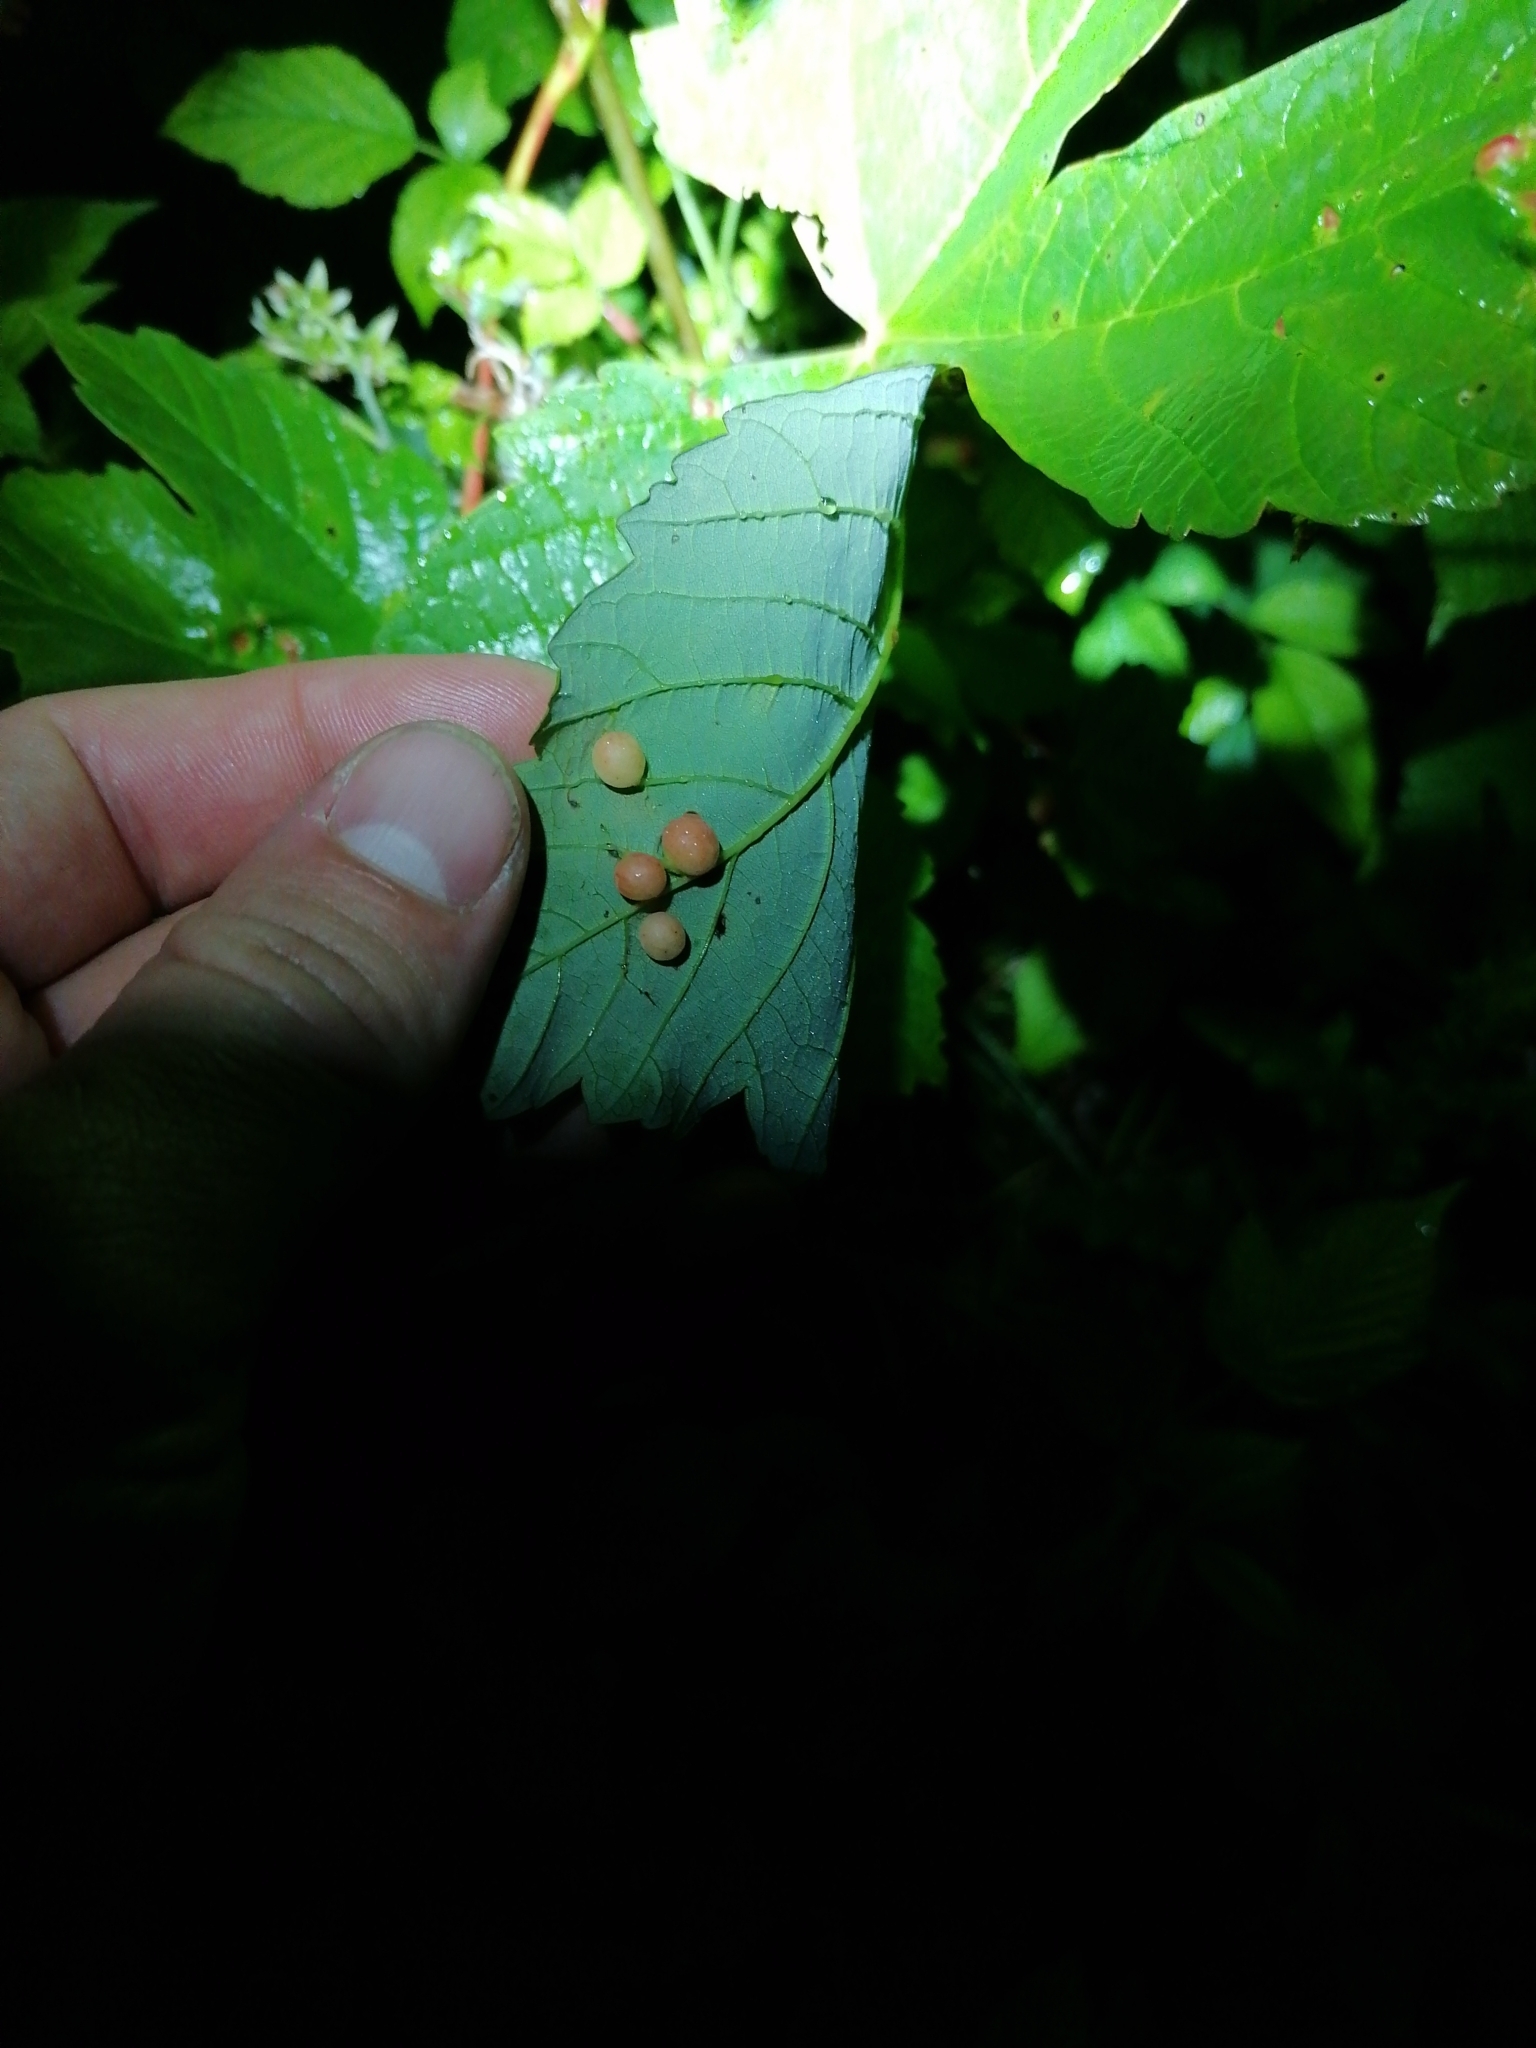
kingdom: Animalia
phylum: Arthropoda
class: Insecta
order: Hymenoptera
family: Cynipidae
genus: Pediaspis
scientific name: Pediaspis aceris
